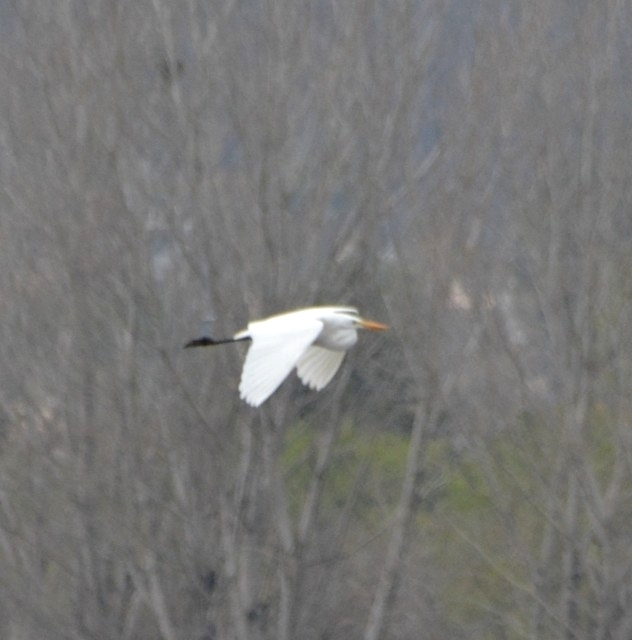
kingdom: Animalia
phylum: Chordata
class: Aves
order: Pelecaniformes
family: Ardeidae
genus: Ardea
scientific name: Ardea alba
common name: Great egret
